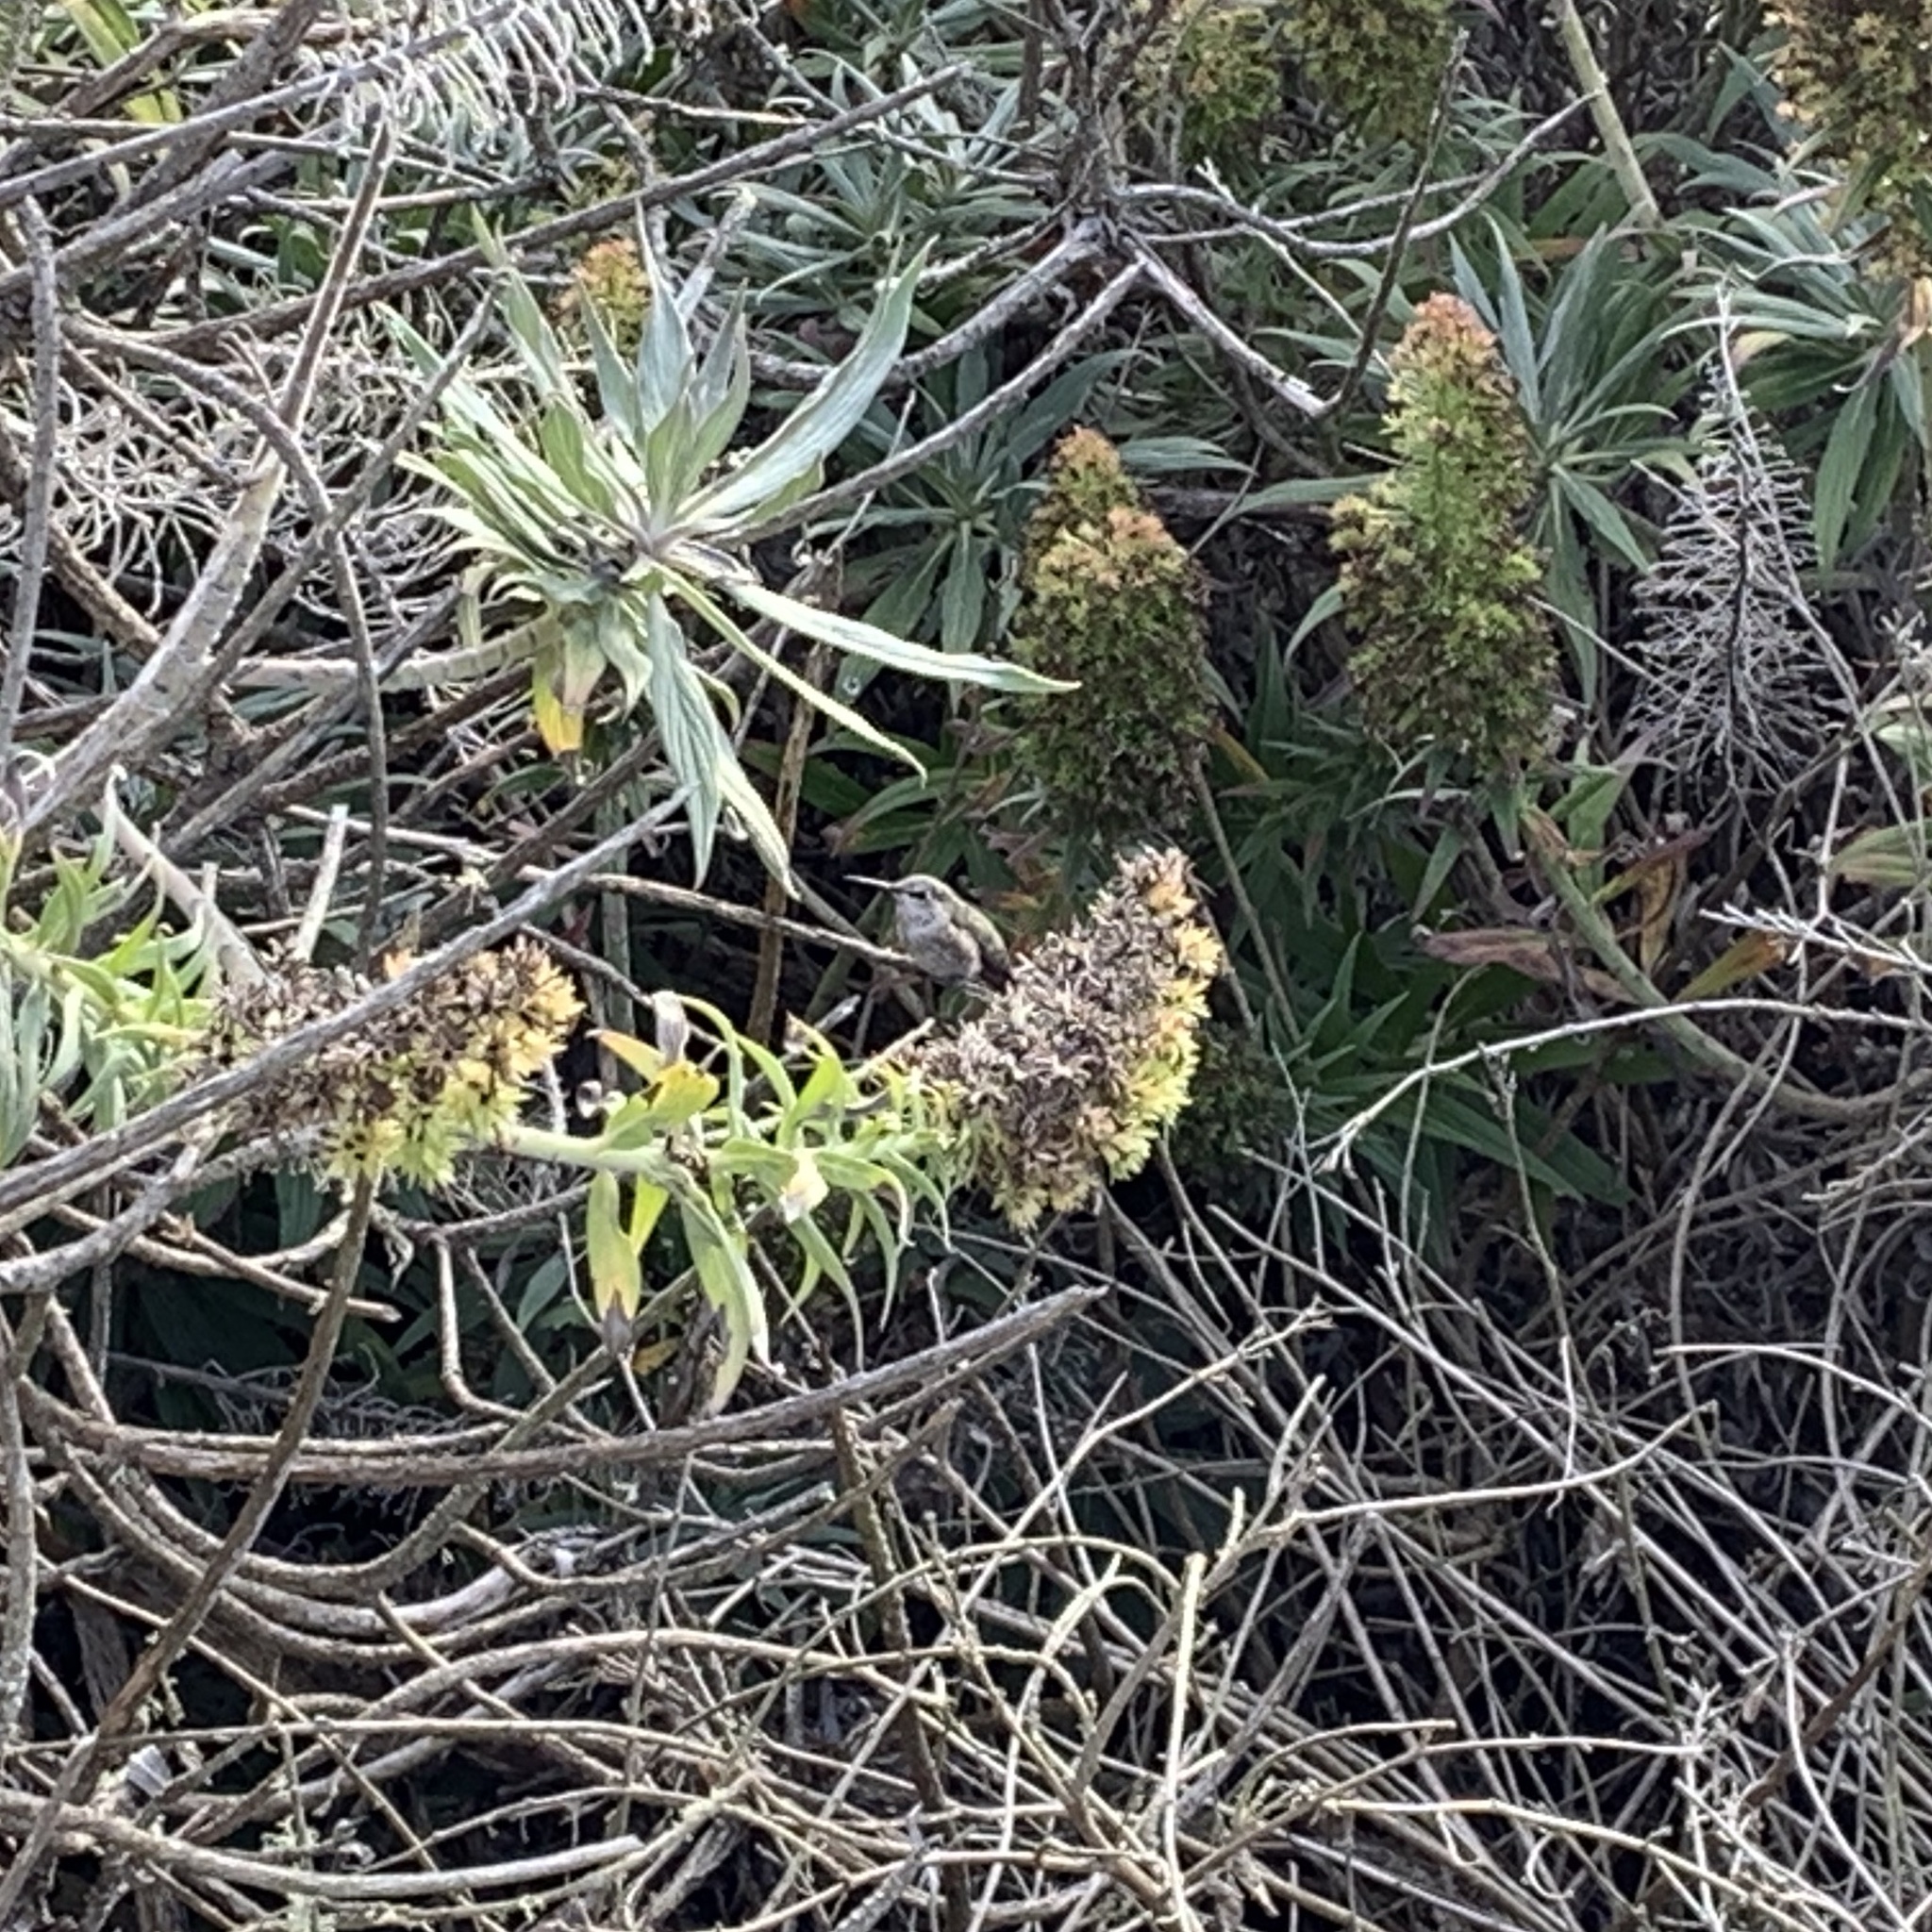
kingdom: Animalia
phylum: Chordata
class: Aves
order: Apodiformes
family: Trochilidae
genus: Calypte
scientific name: Calypte anna
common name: Anna's hummingbird
